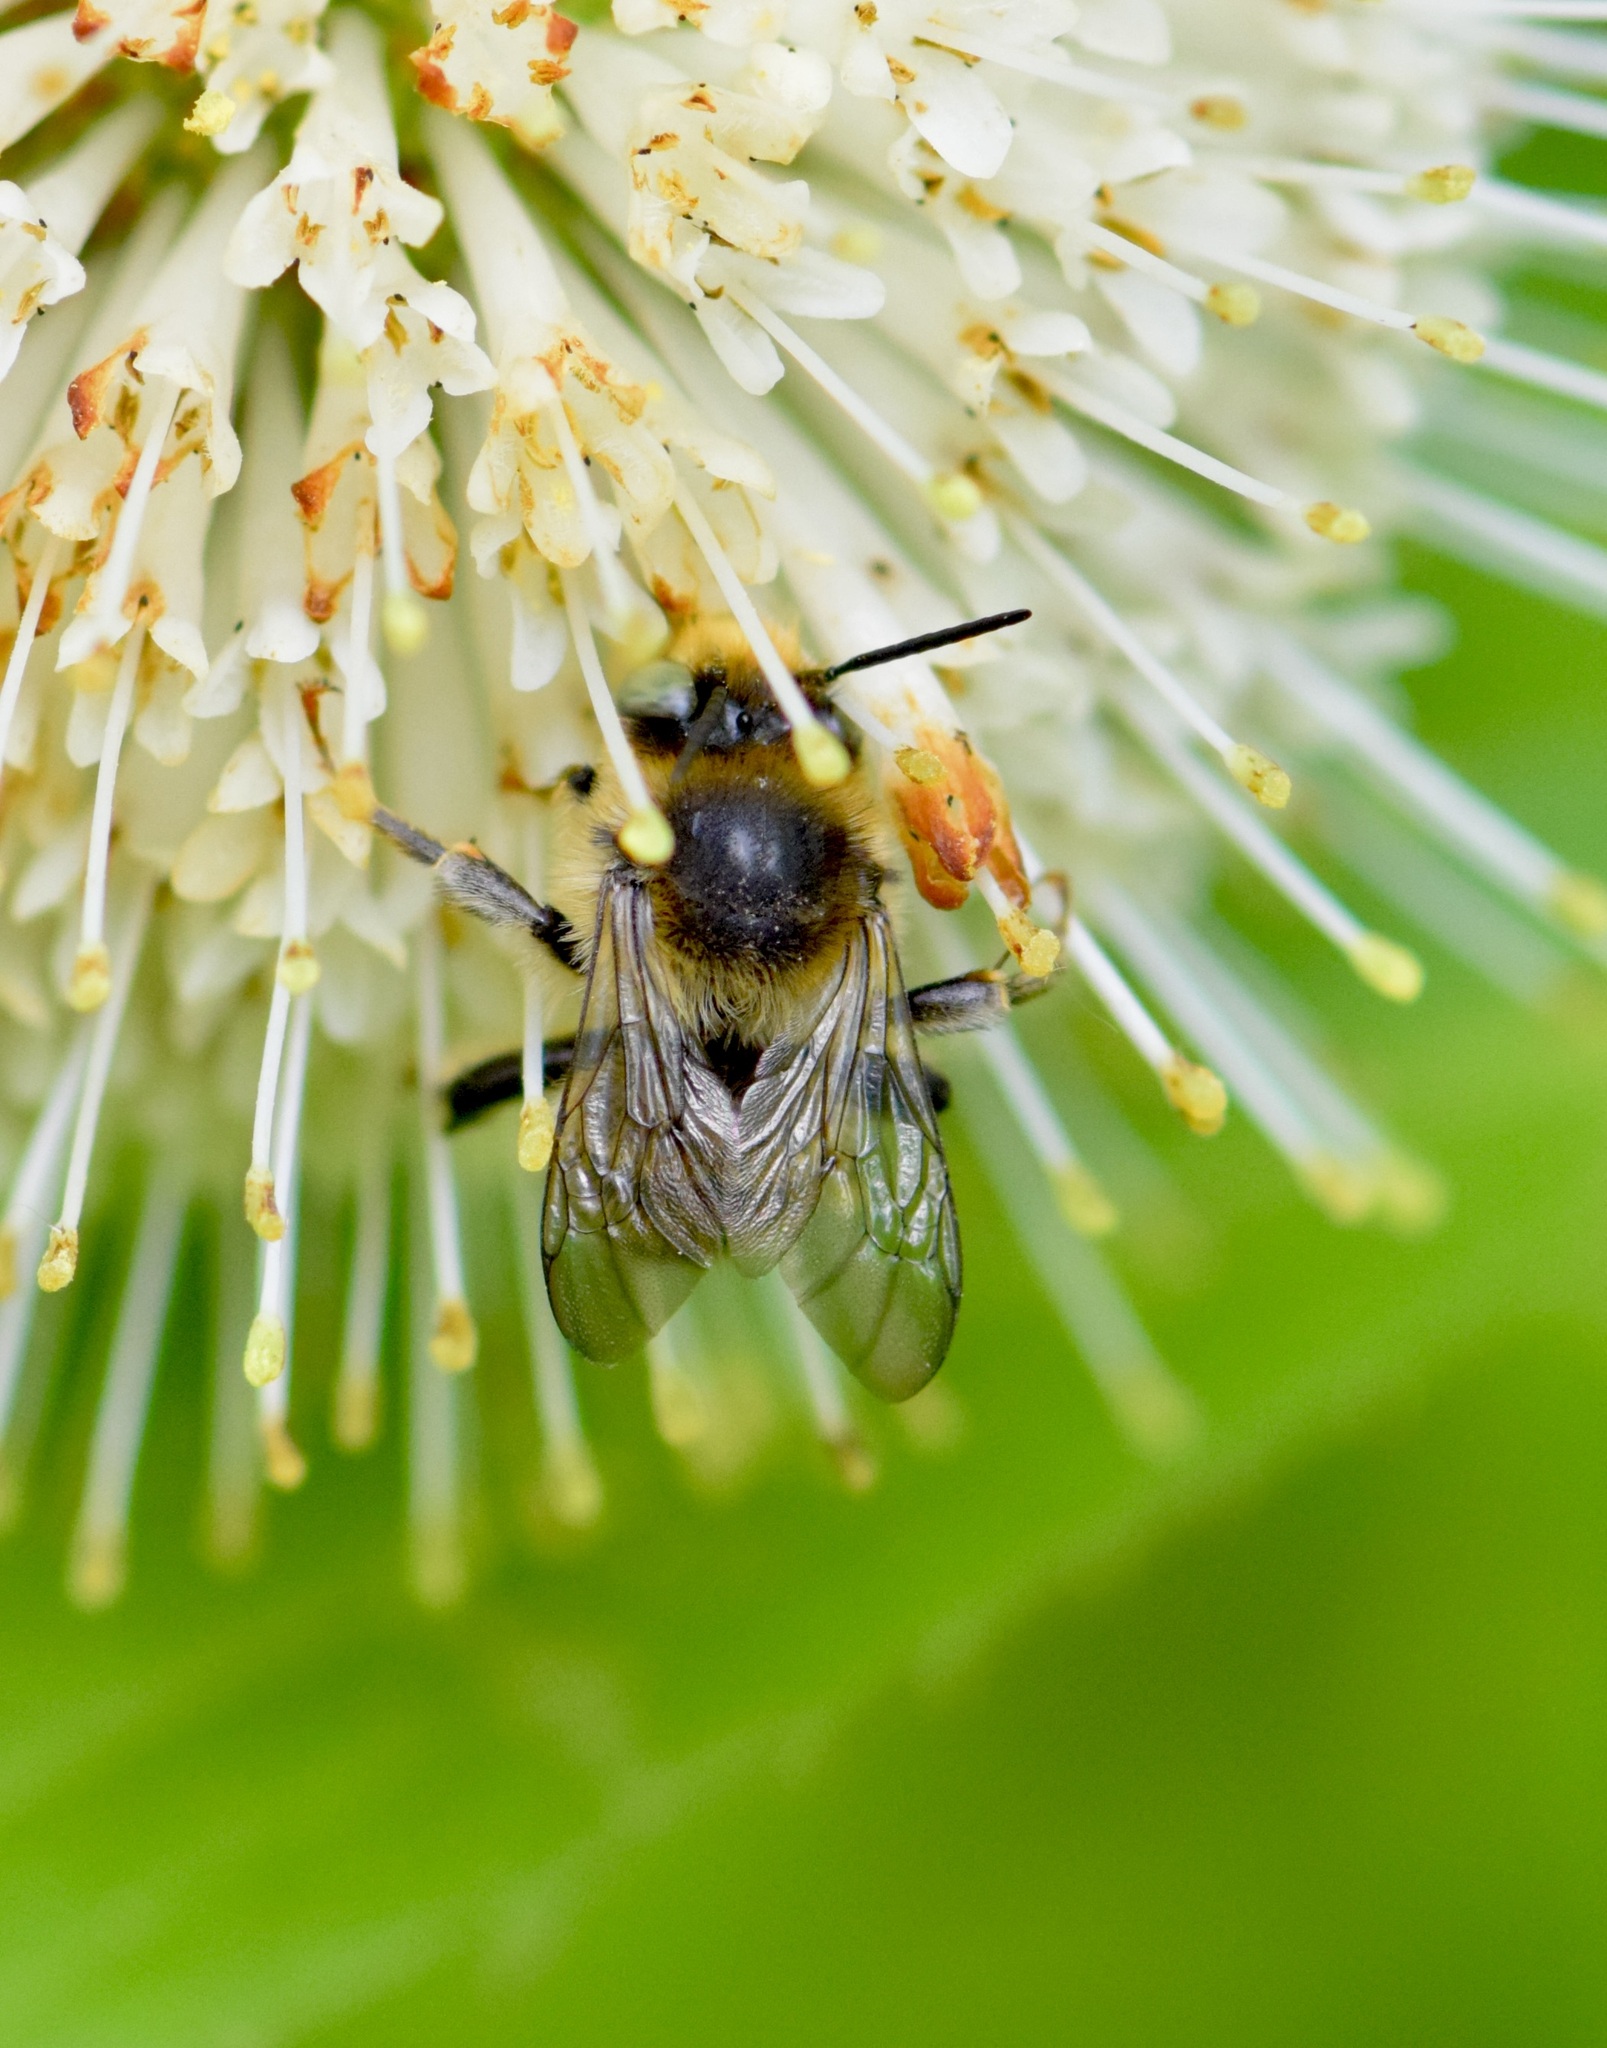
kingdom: Animalia
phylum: Arthropoda
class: Insecta
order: Hymenoptera
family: Apidae
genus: Anthophora
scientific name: Anthophora terminalis
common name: Orange-tipped wood-digger bee
